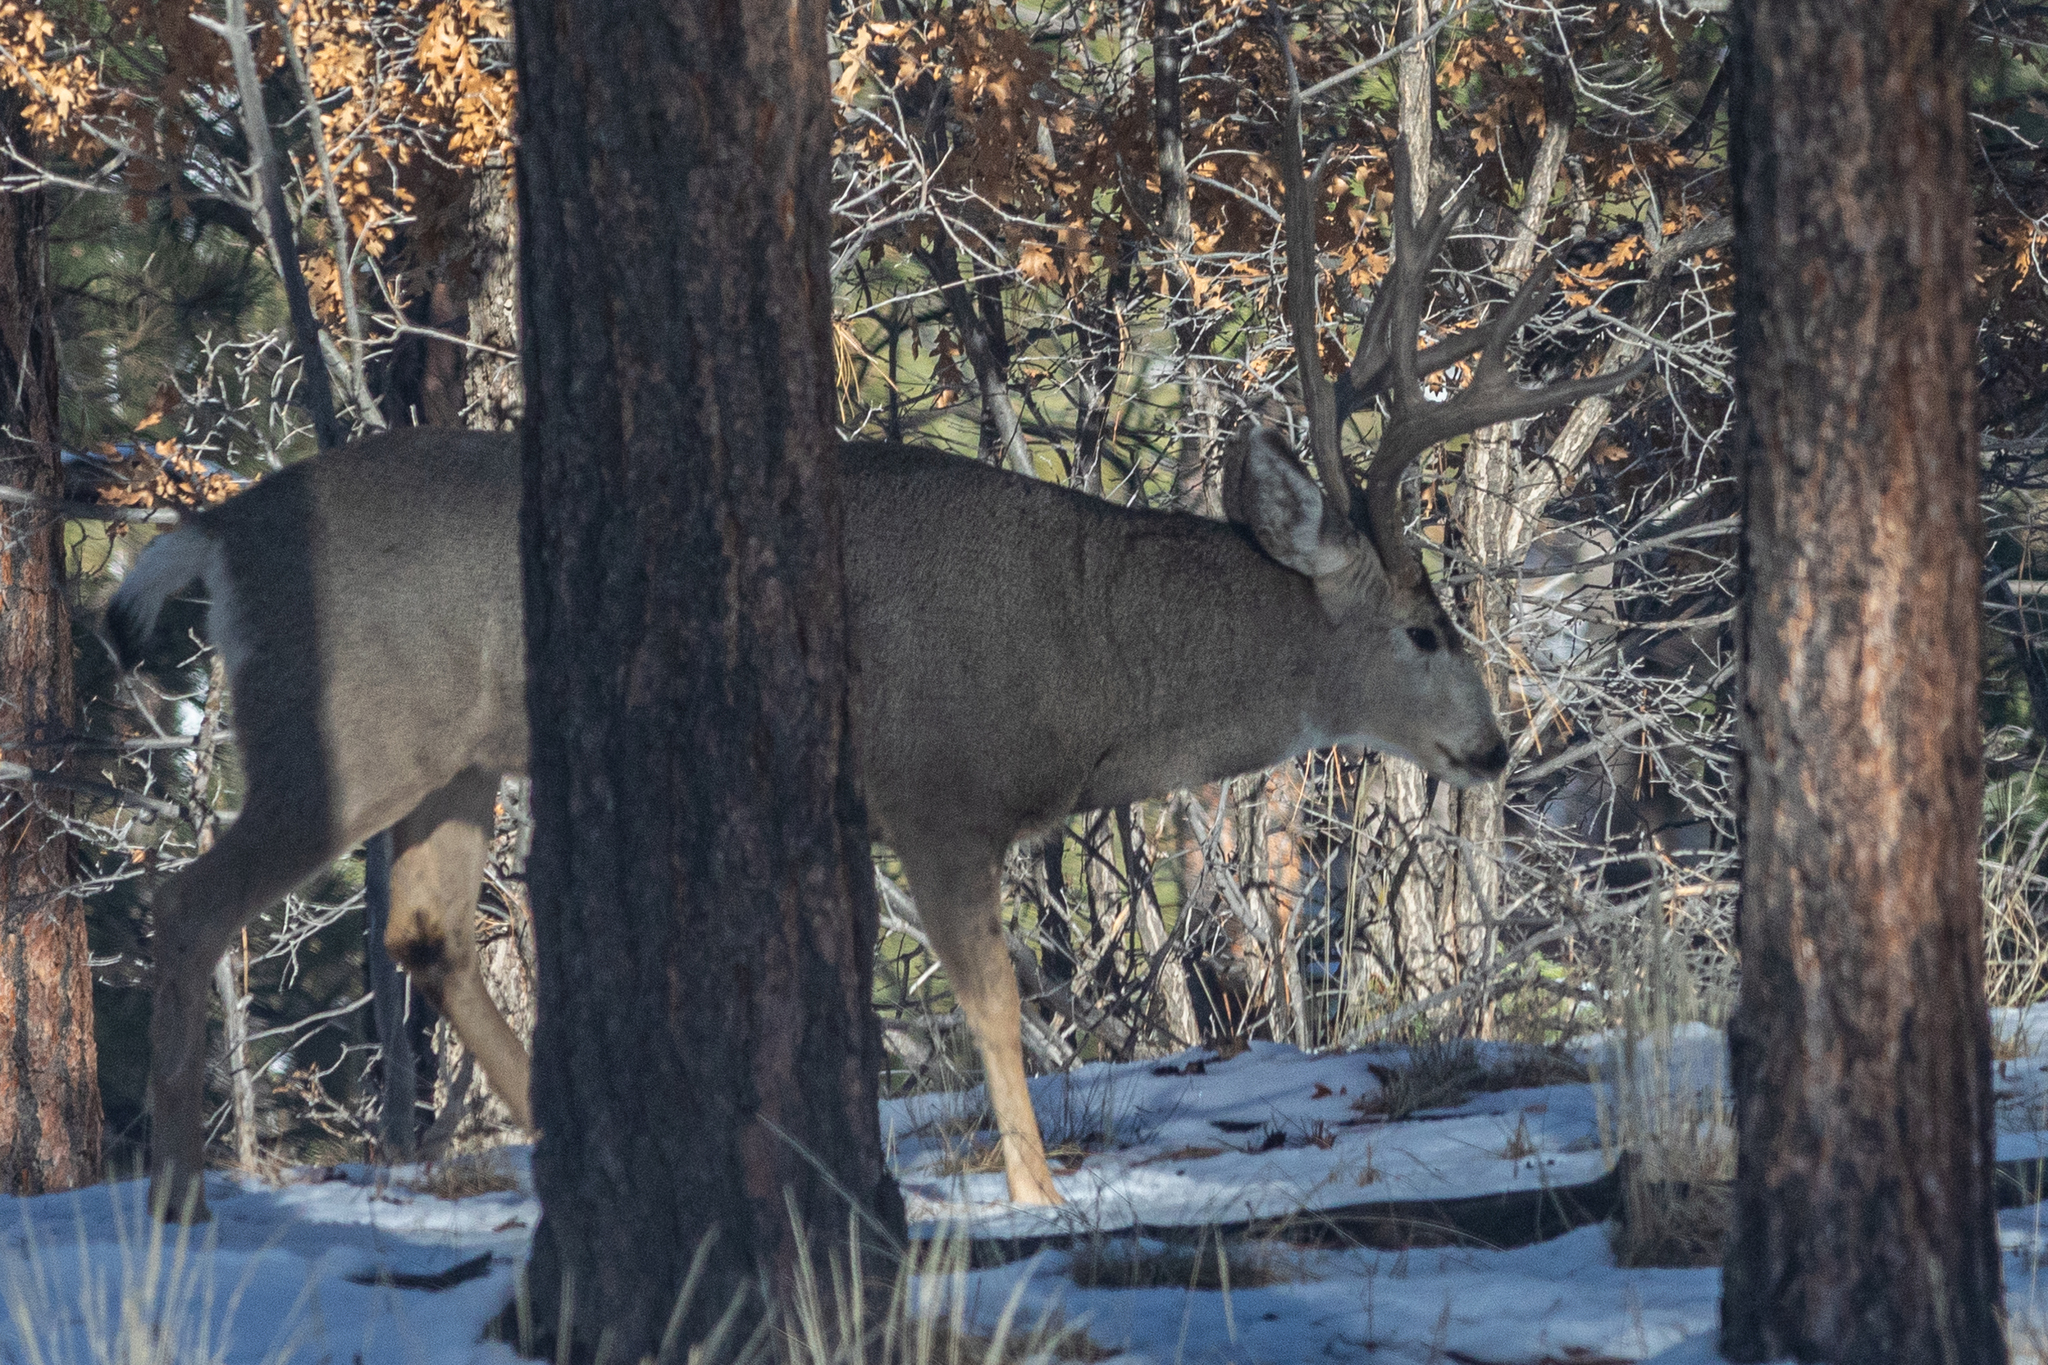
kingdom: Animalia
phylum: Chordata
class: Mammalia
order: Artiodactyla
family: Cervidae
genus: Odocoileus
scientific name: Odocoileus hemionus
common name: Mule deer
